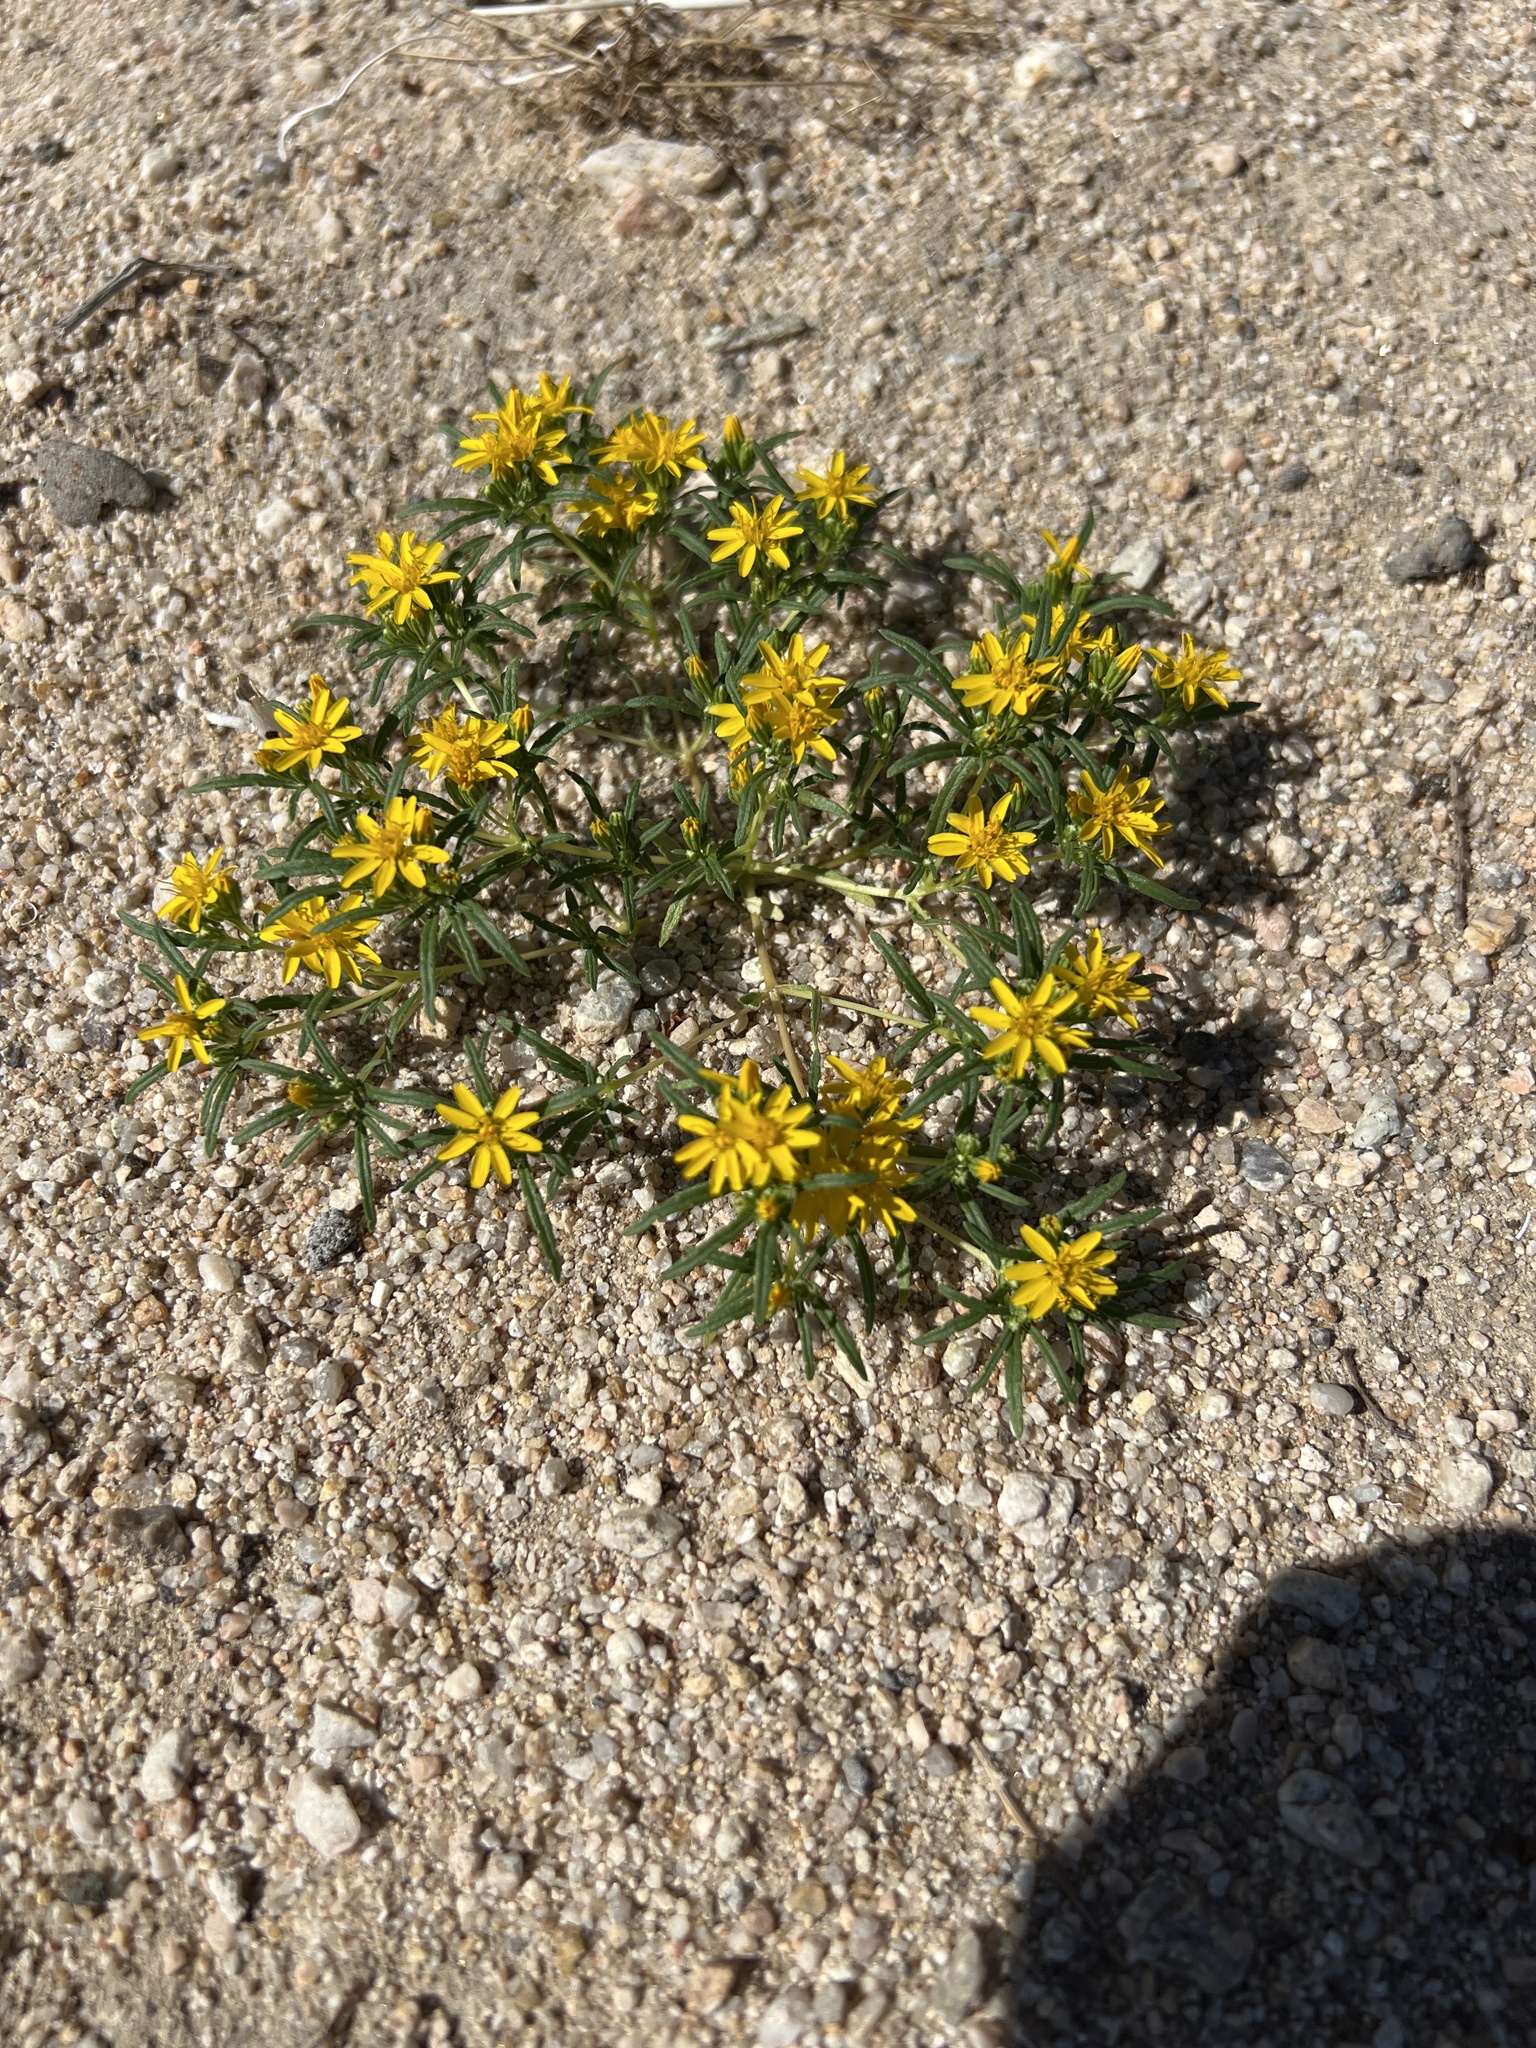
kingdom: Plantae
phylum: Tracheophyta
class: Magnoliopsida
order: Asterales
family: Asteraceae
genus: Pectis
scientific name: Pectis papposa
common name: Many-bristle chinchweed
